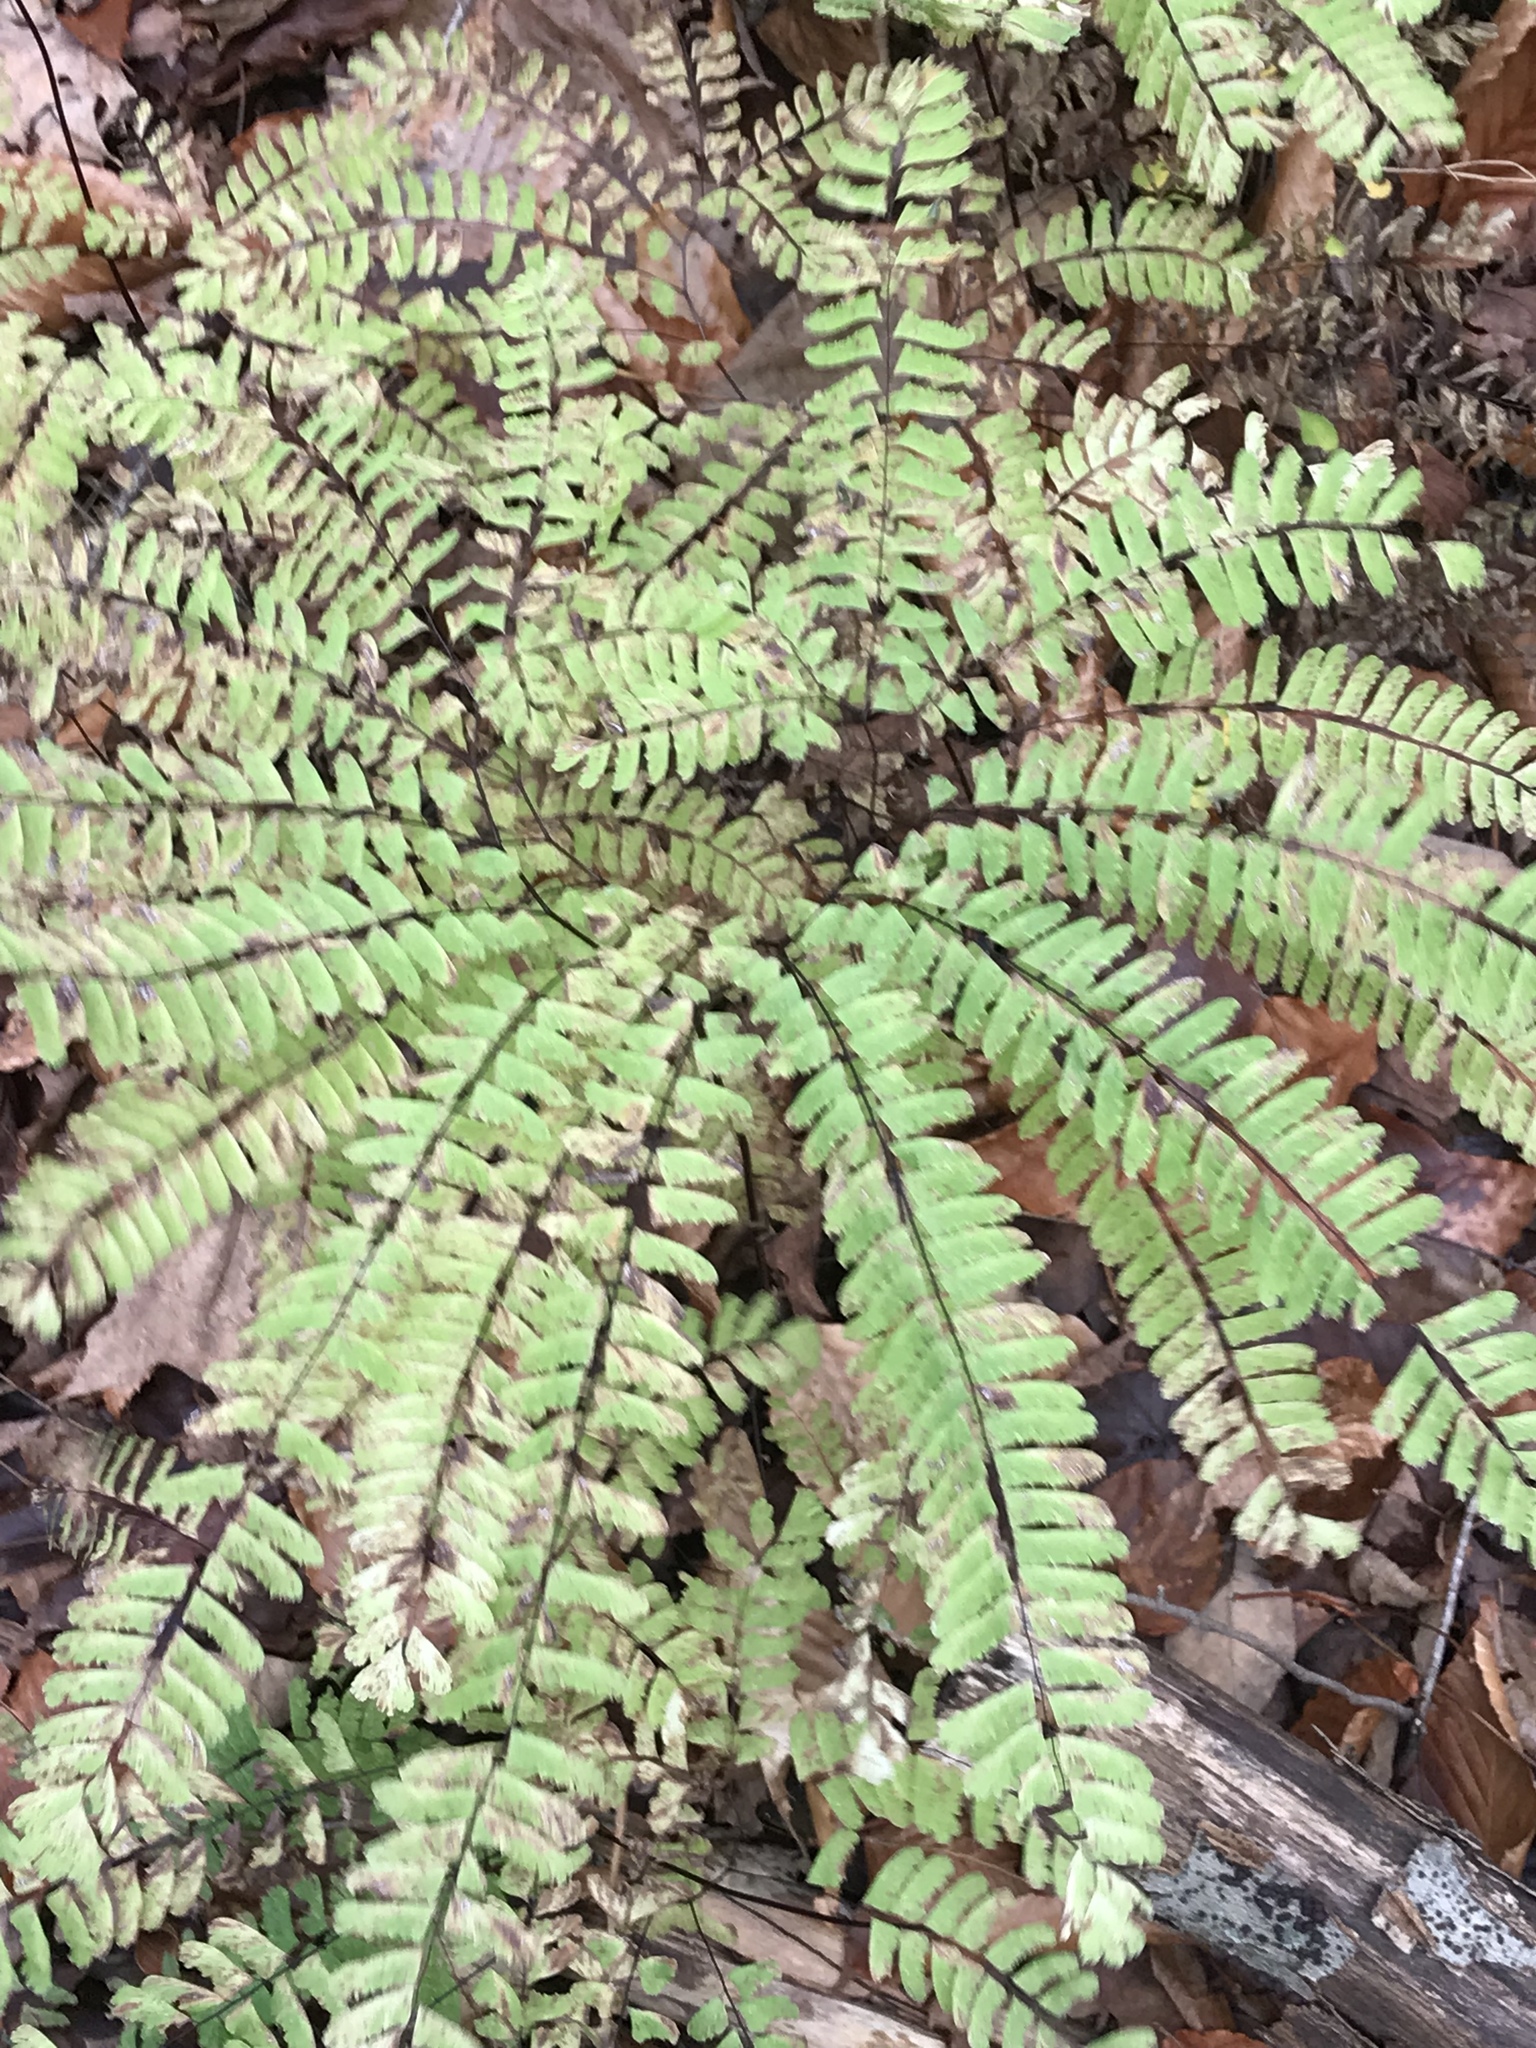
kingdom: Plantae
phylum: Tracheophyta
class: Polypodiopsida
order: Polypodiales
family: Pteridaceae
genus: Adiantum
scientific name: Adiantum pedatum
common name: Five-finger fern
